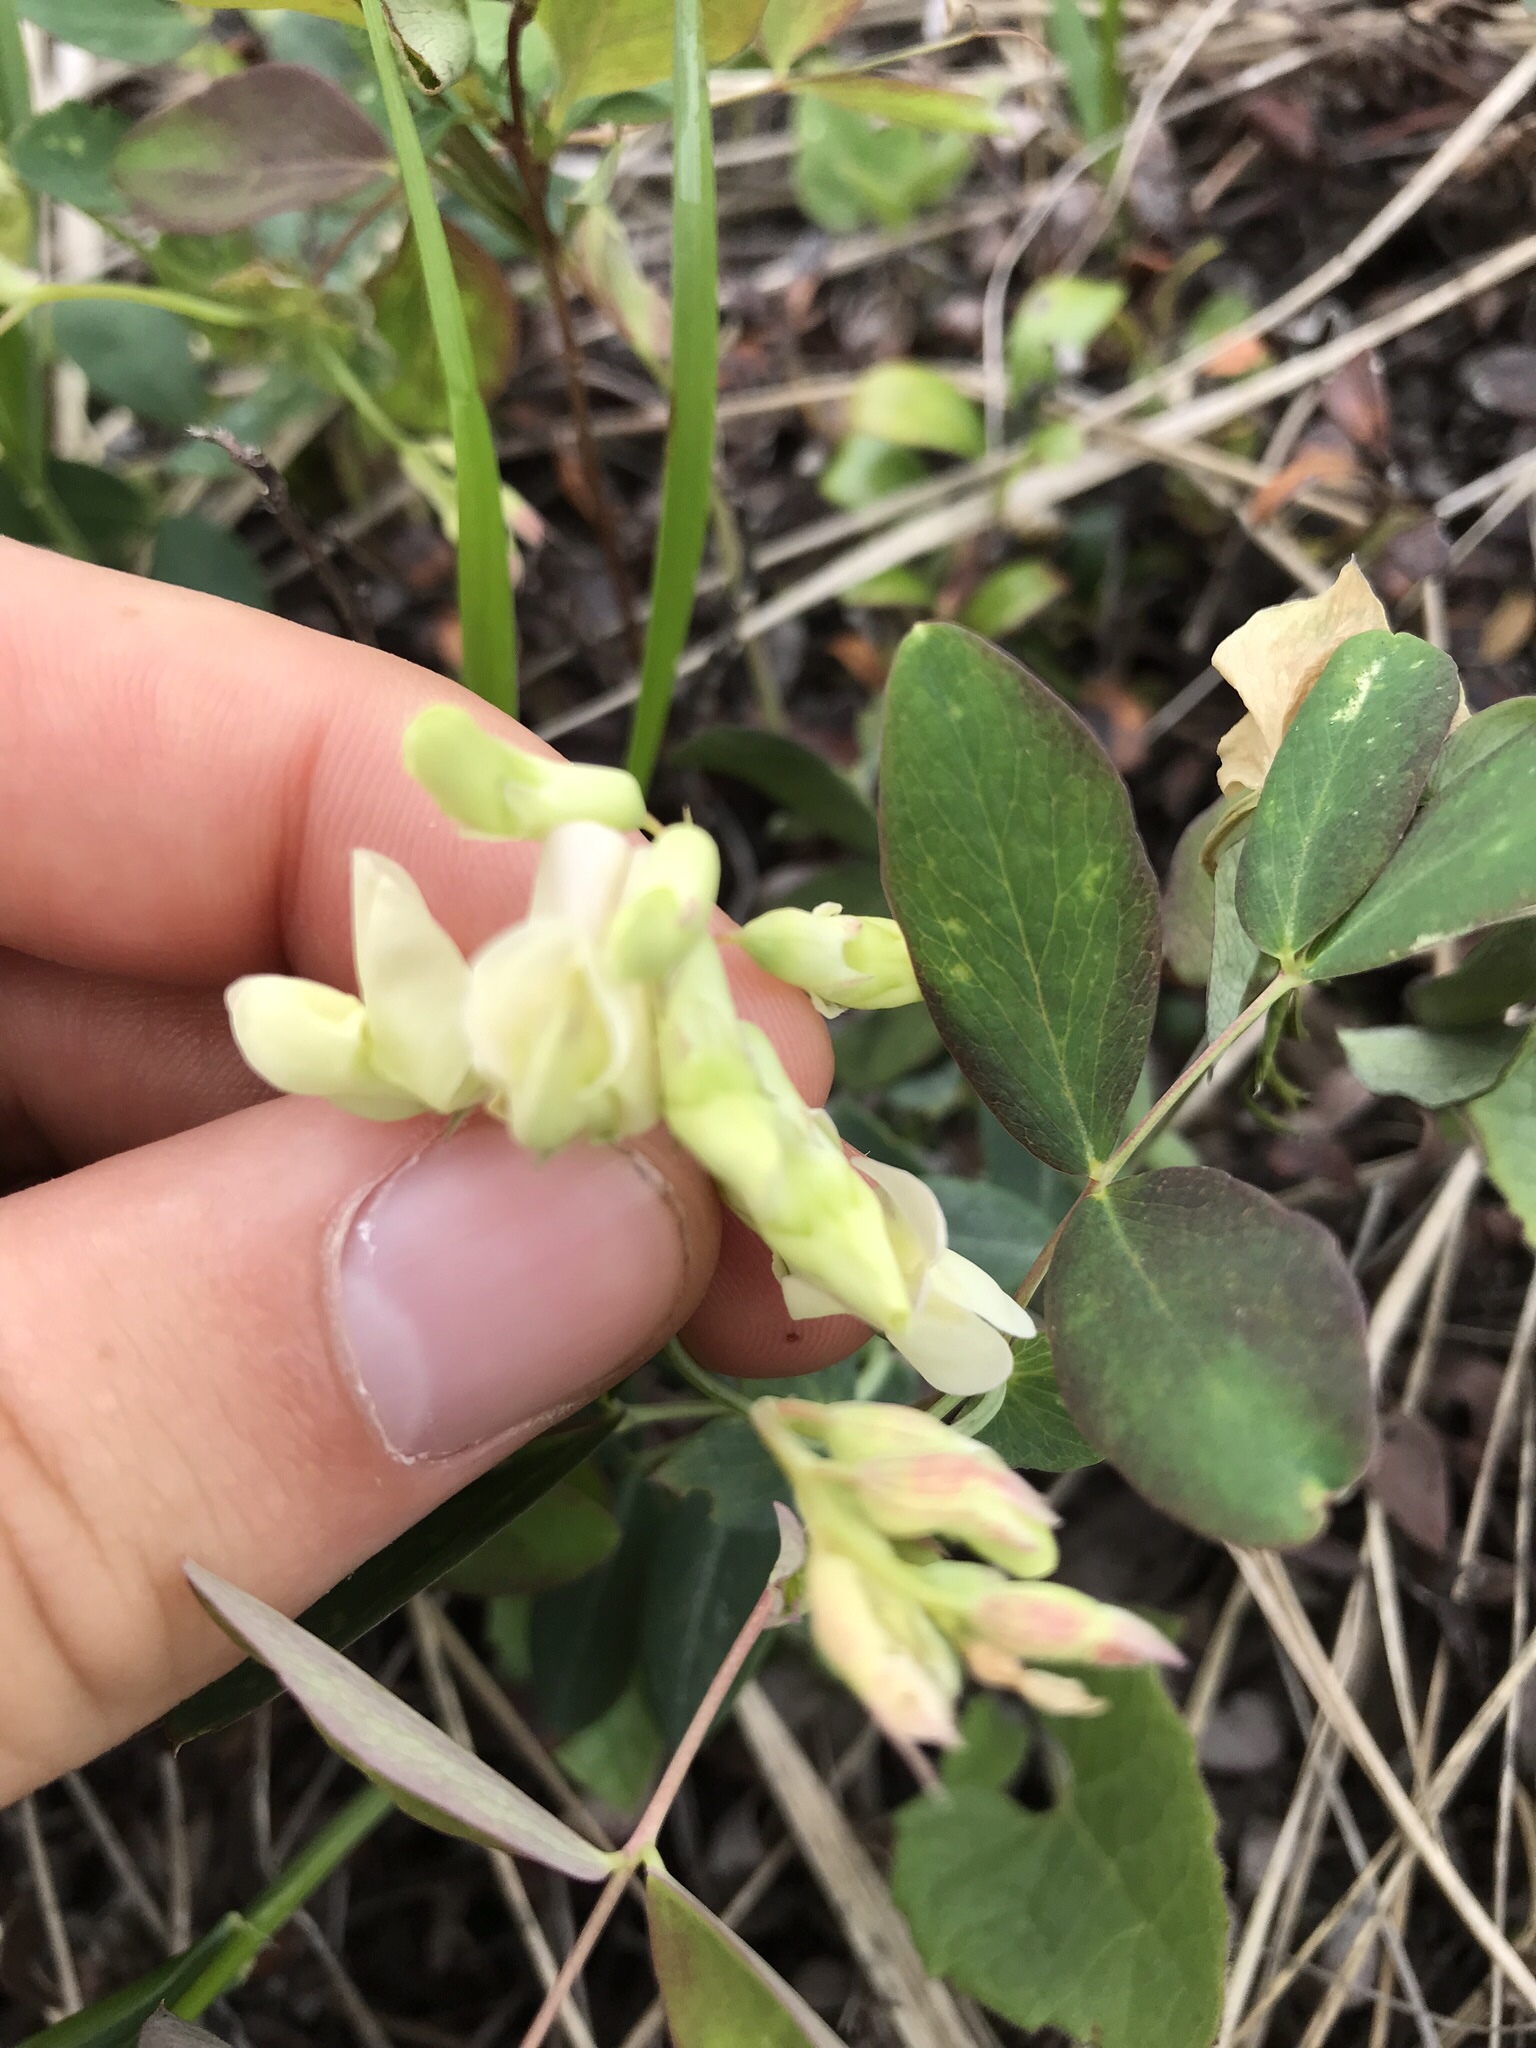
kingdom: Plantae
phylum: Tracheophyta
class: Magnoliopsida
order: Fabales
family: Fabaceae
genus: Lathyrus
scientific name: Lathyrus ochroleucus
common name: Pale vetchling
